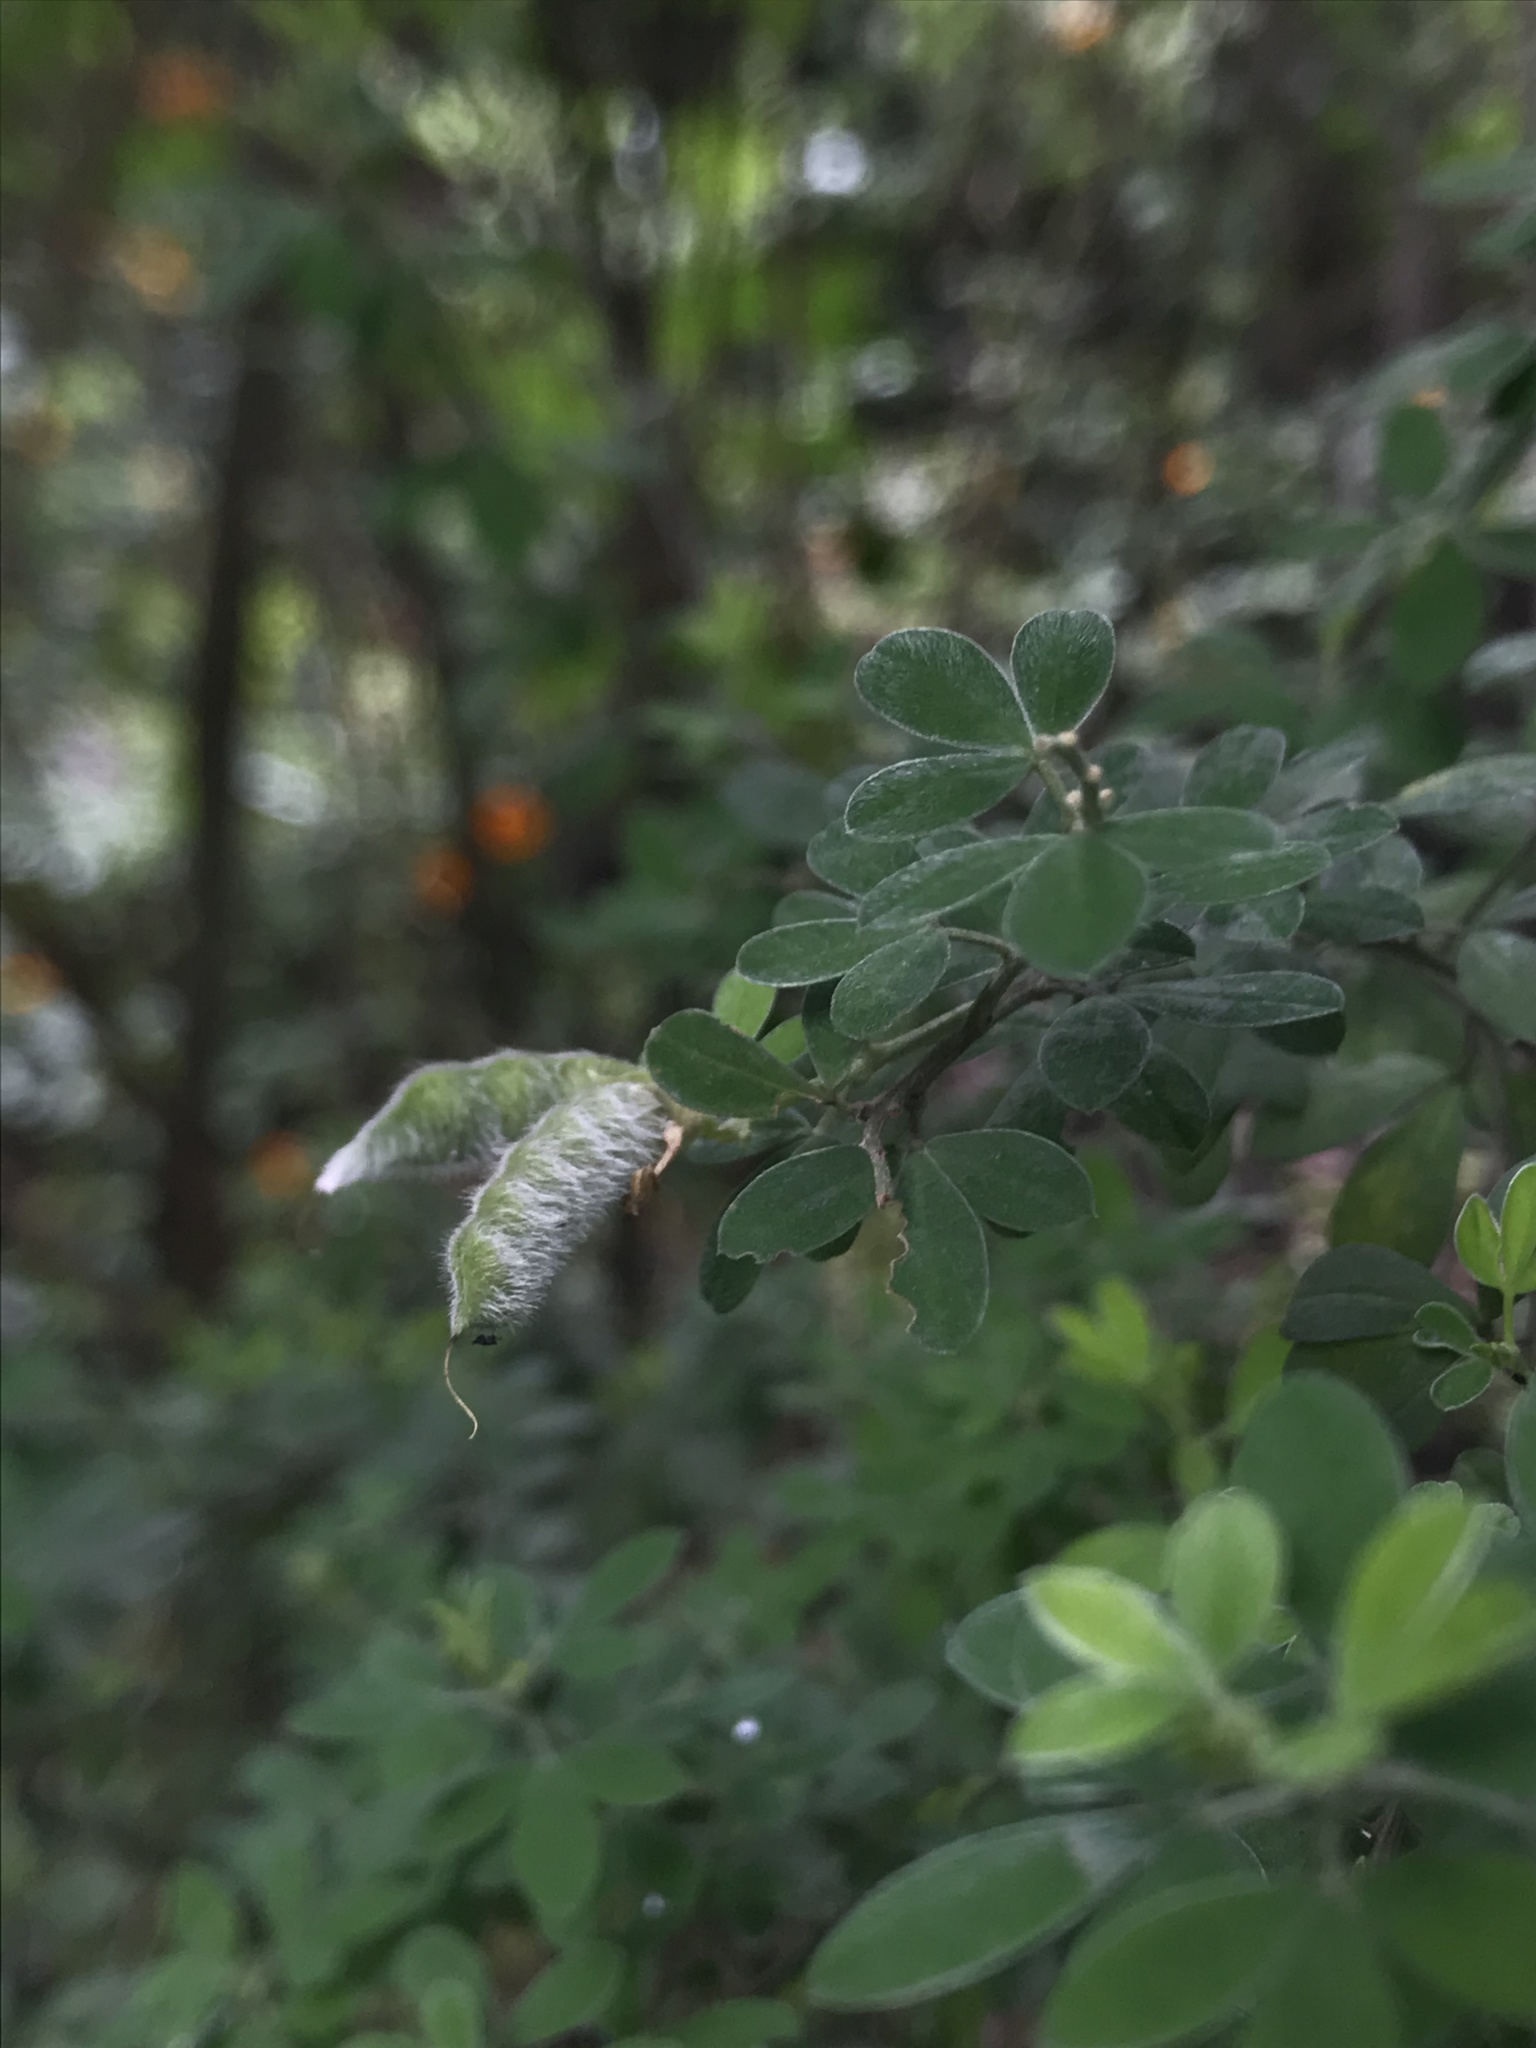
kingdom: Plantae
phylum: Tracheophyta
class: Magnoliopsida
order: Fabales
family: Fabaceae
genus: Genista
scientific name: Genista monspessulana
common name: Montpellier broom
